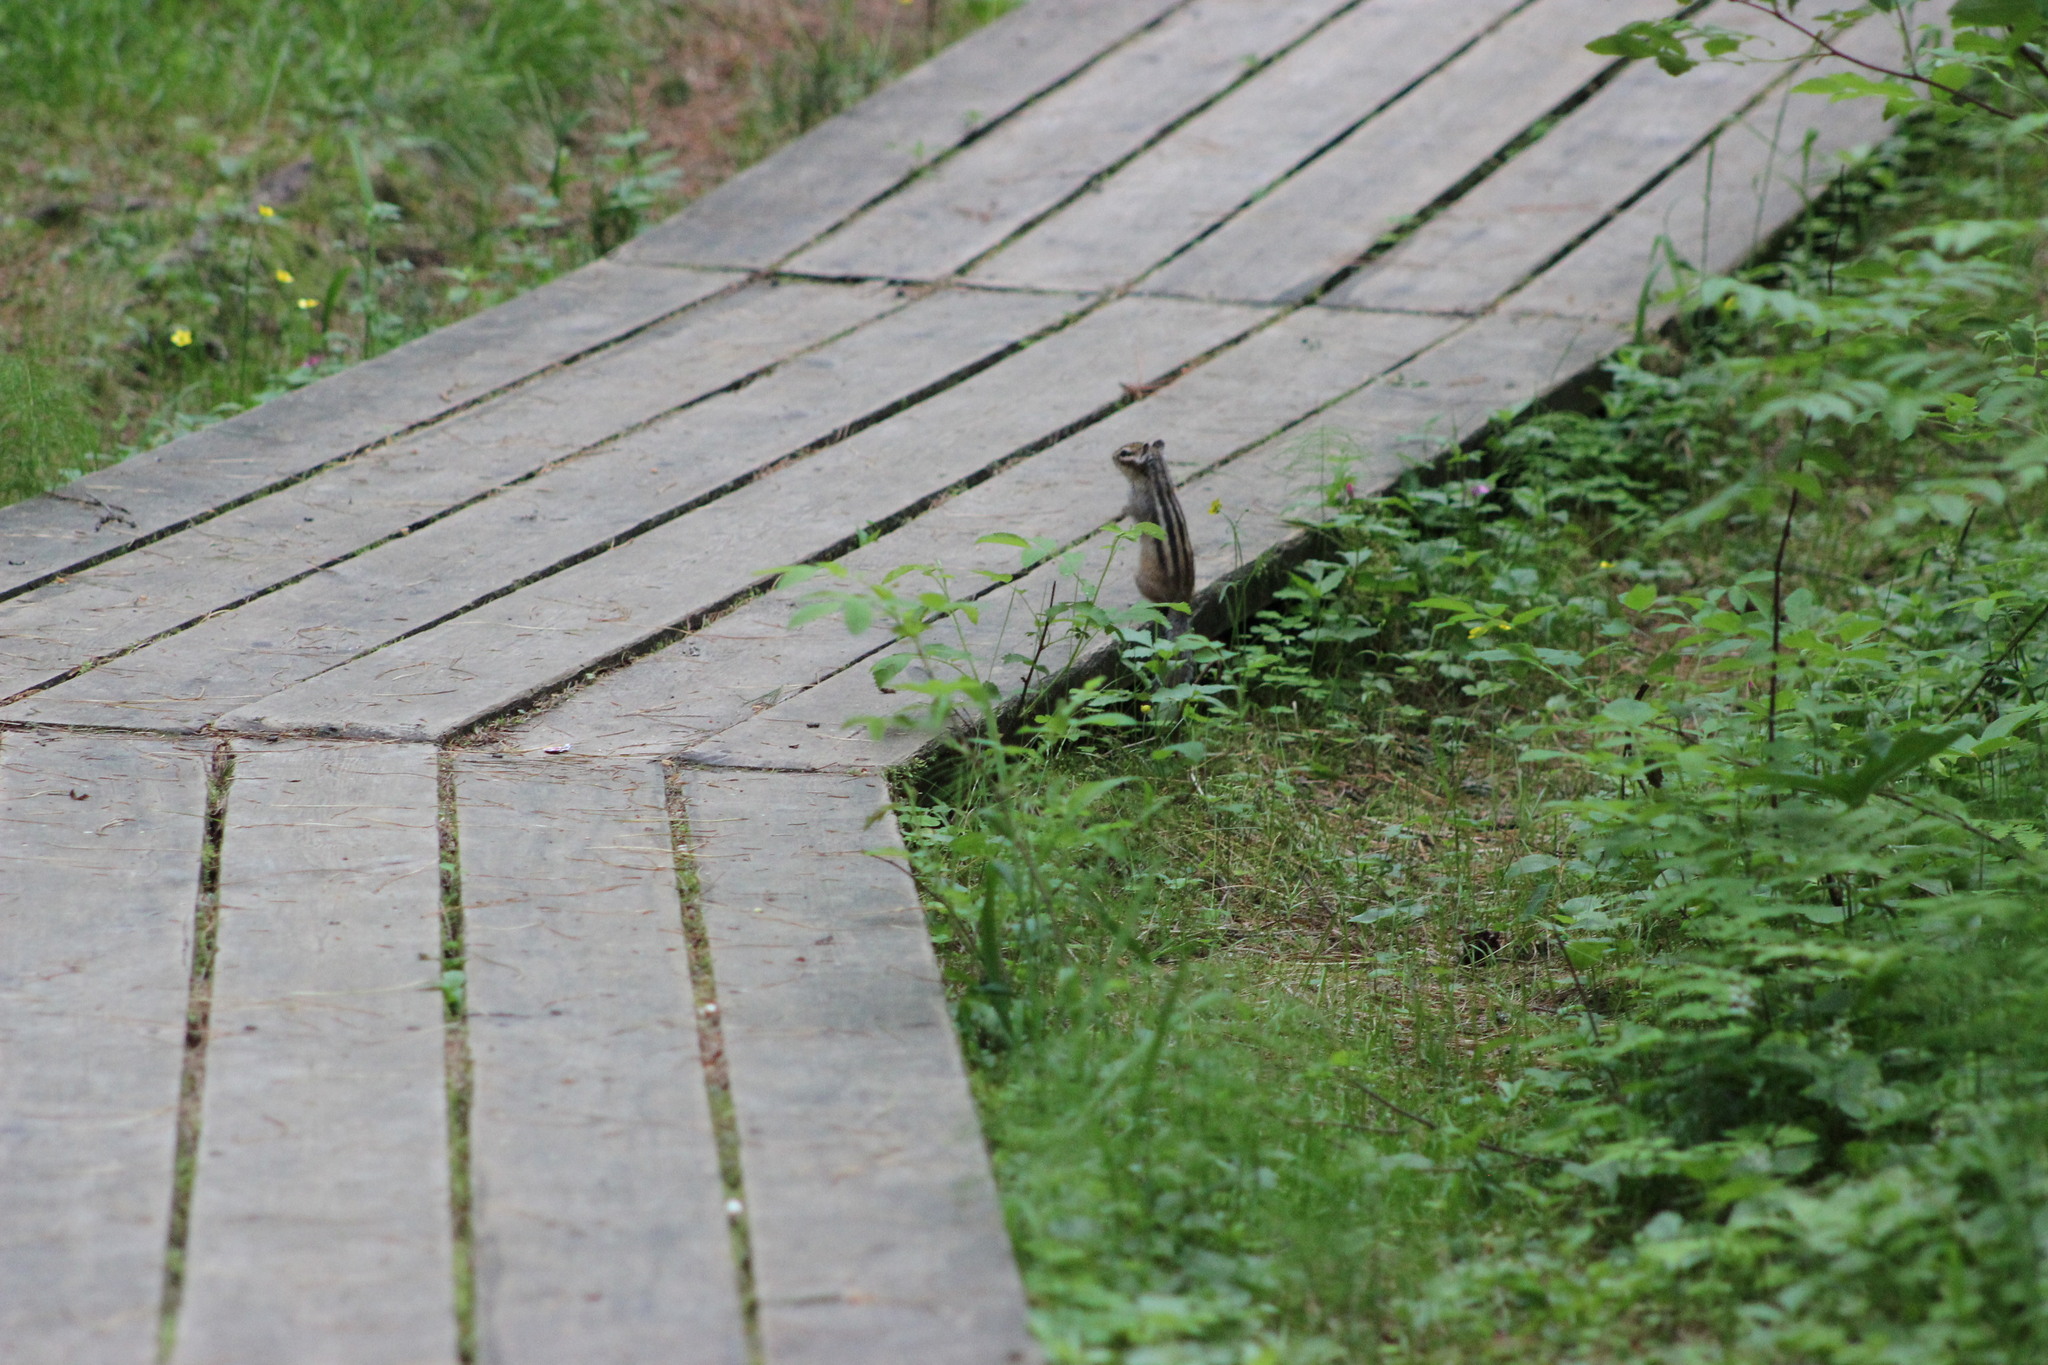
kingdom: Animalia
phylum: Chordata
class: Mammalia
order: Rodentia
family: Sciuridae
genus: Tamias
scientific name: Tamias sibiricus
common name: Siberian chipmunk
